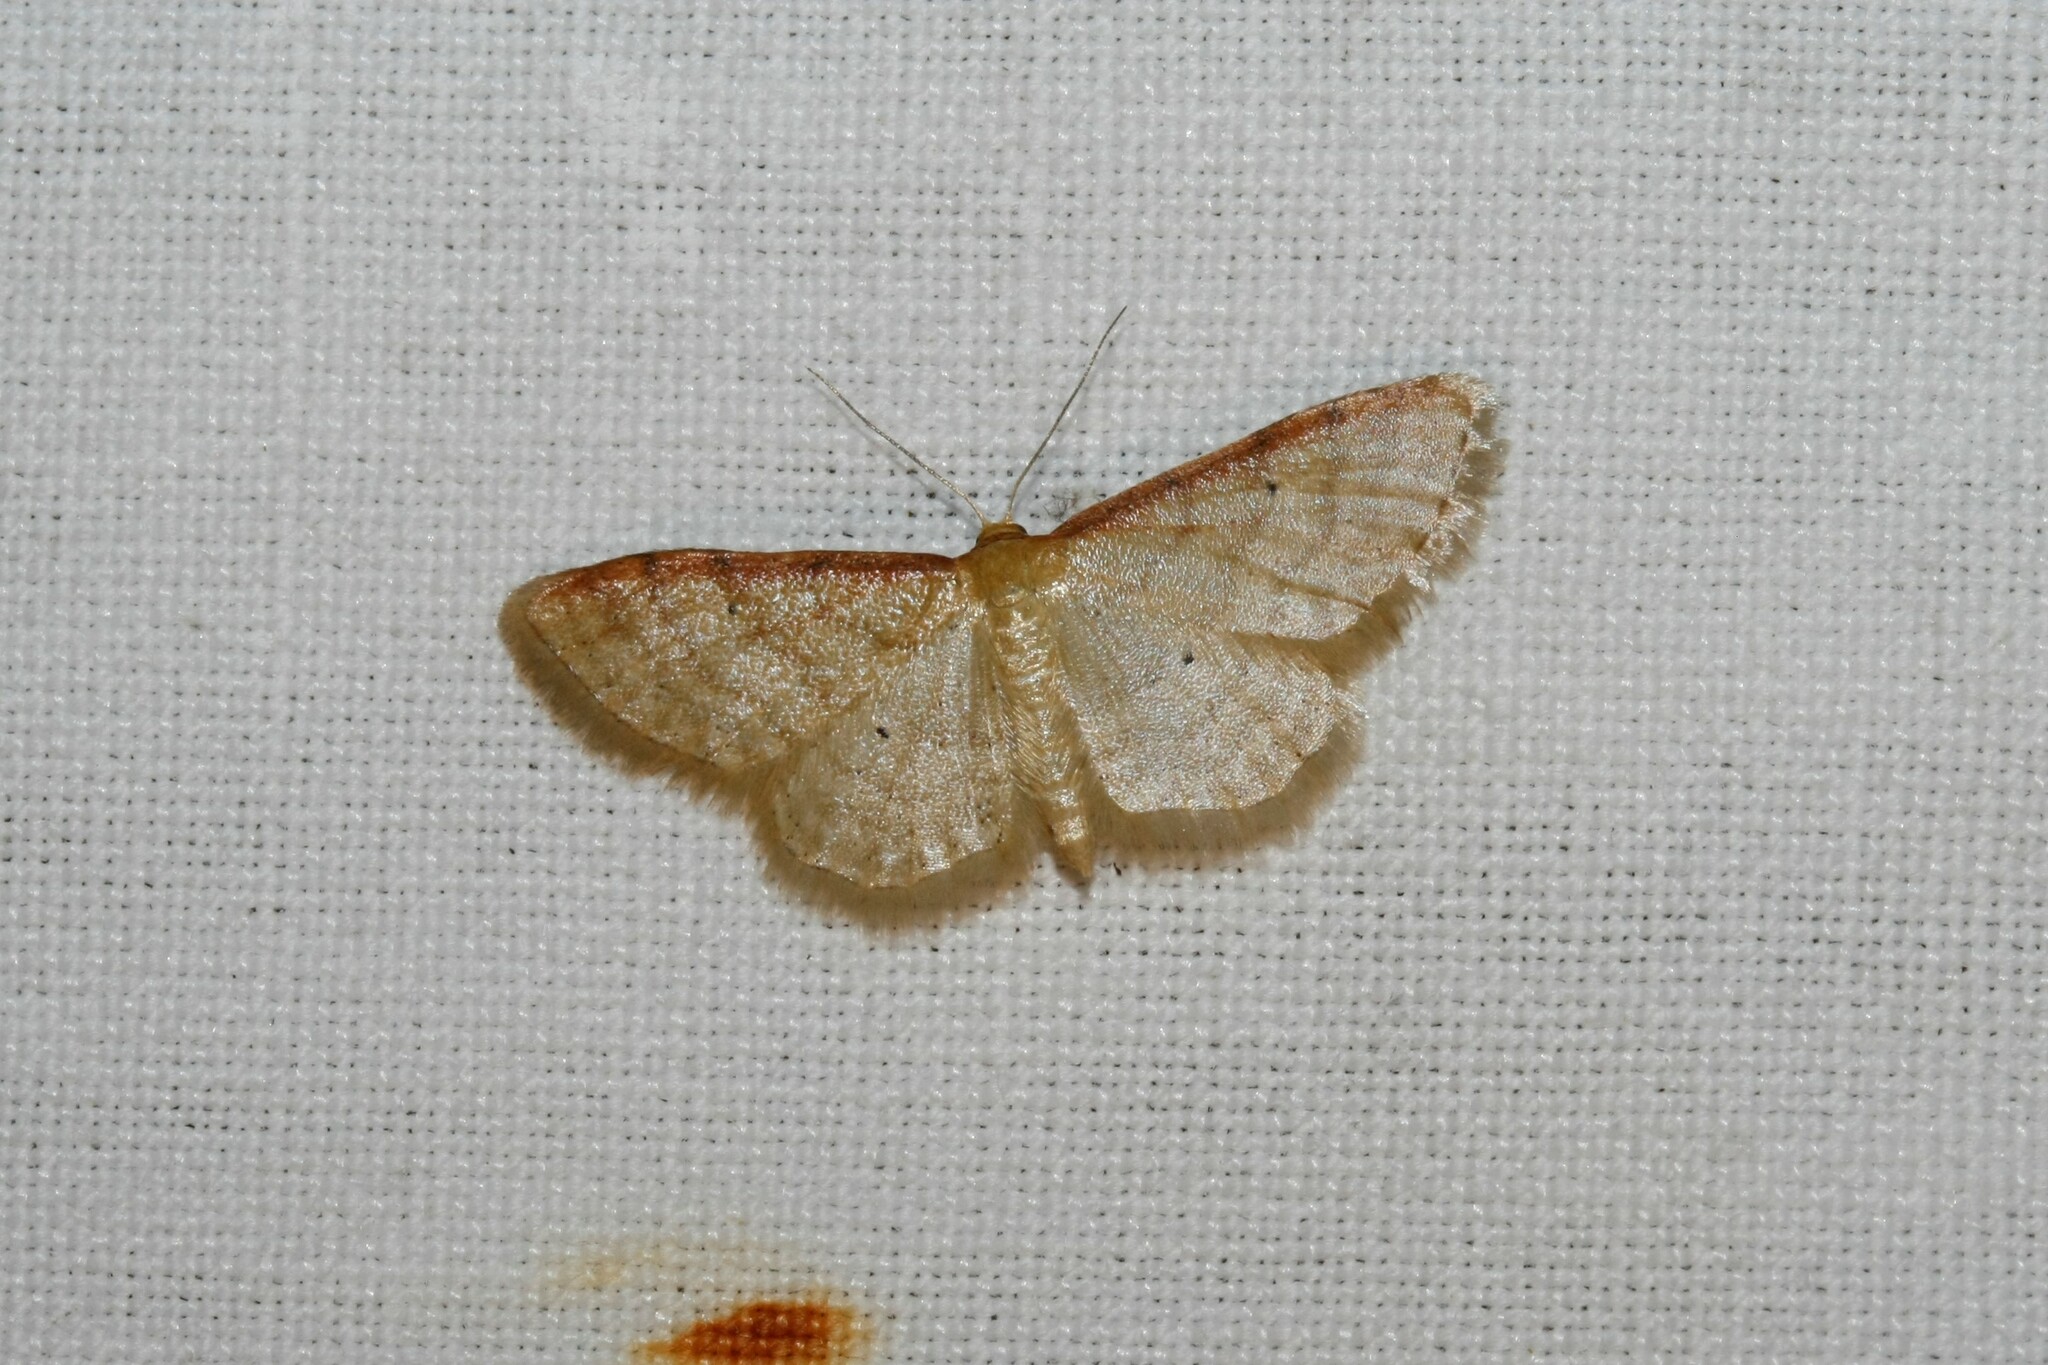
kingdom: Animalia
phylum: Arthropoda
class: Insecta
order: Lepidoptera
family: Geometridae
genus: Idaea
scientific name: Idaea humiliata
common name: Isle of wight wave
